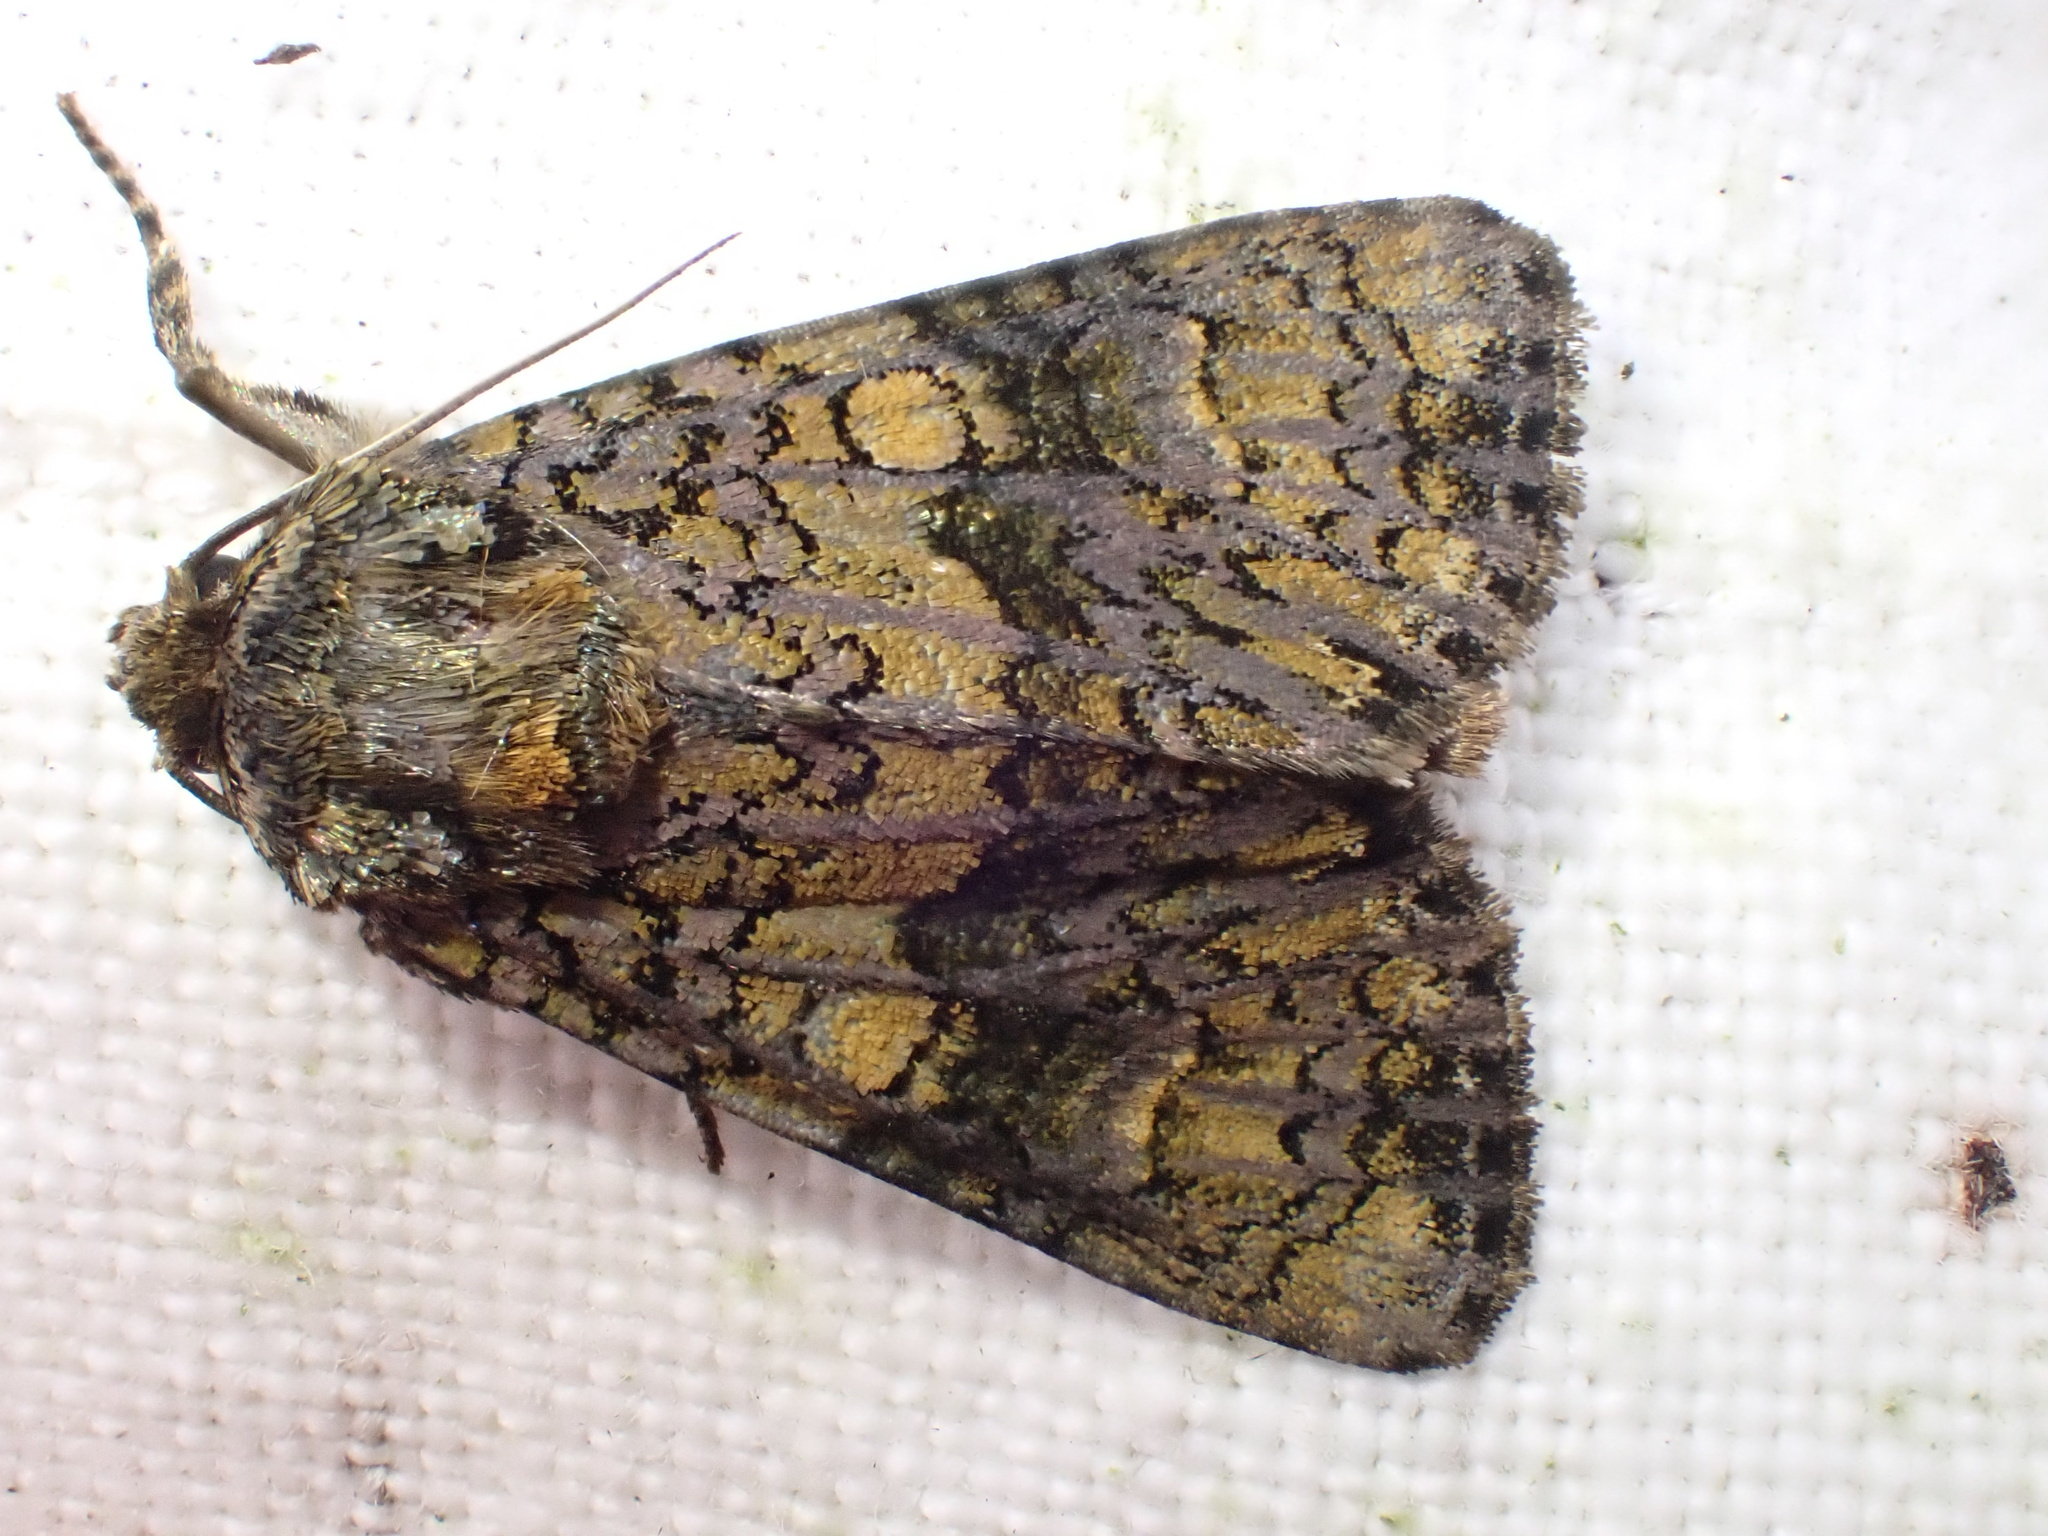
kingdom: Animalia
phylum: Arthropoda
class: Insecta
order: Lepidoptera
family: Noctuidae
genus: Craniophora
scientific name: Craniophora ligustri
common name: Coronet
